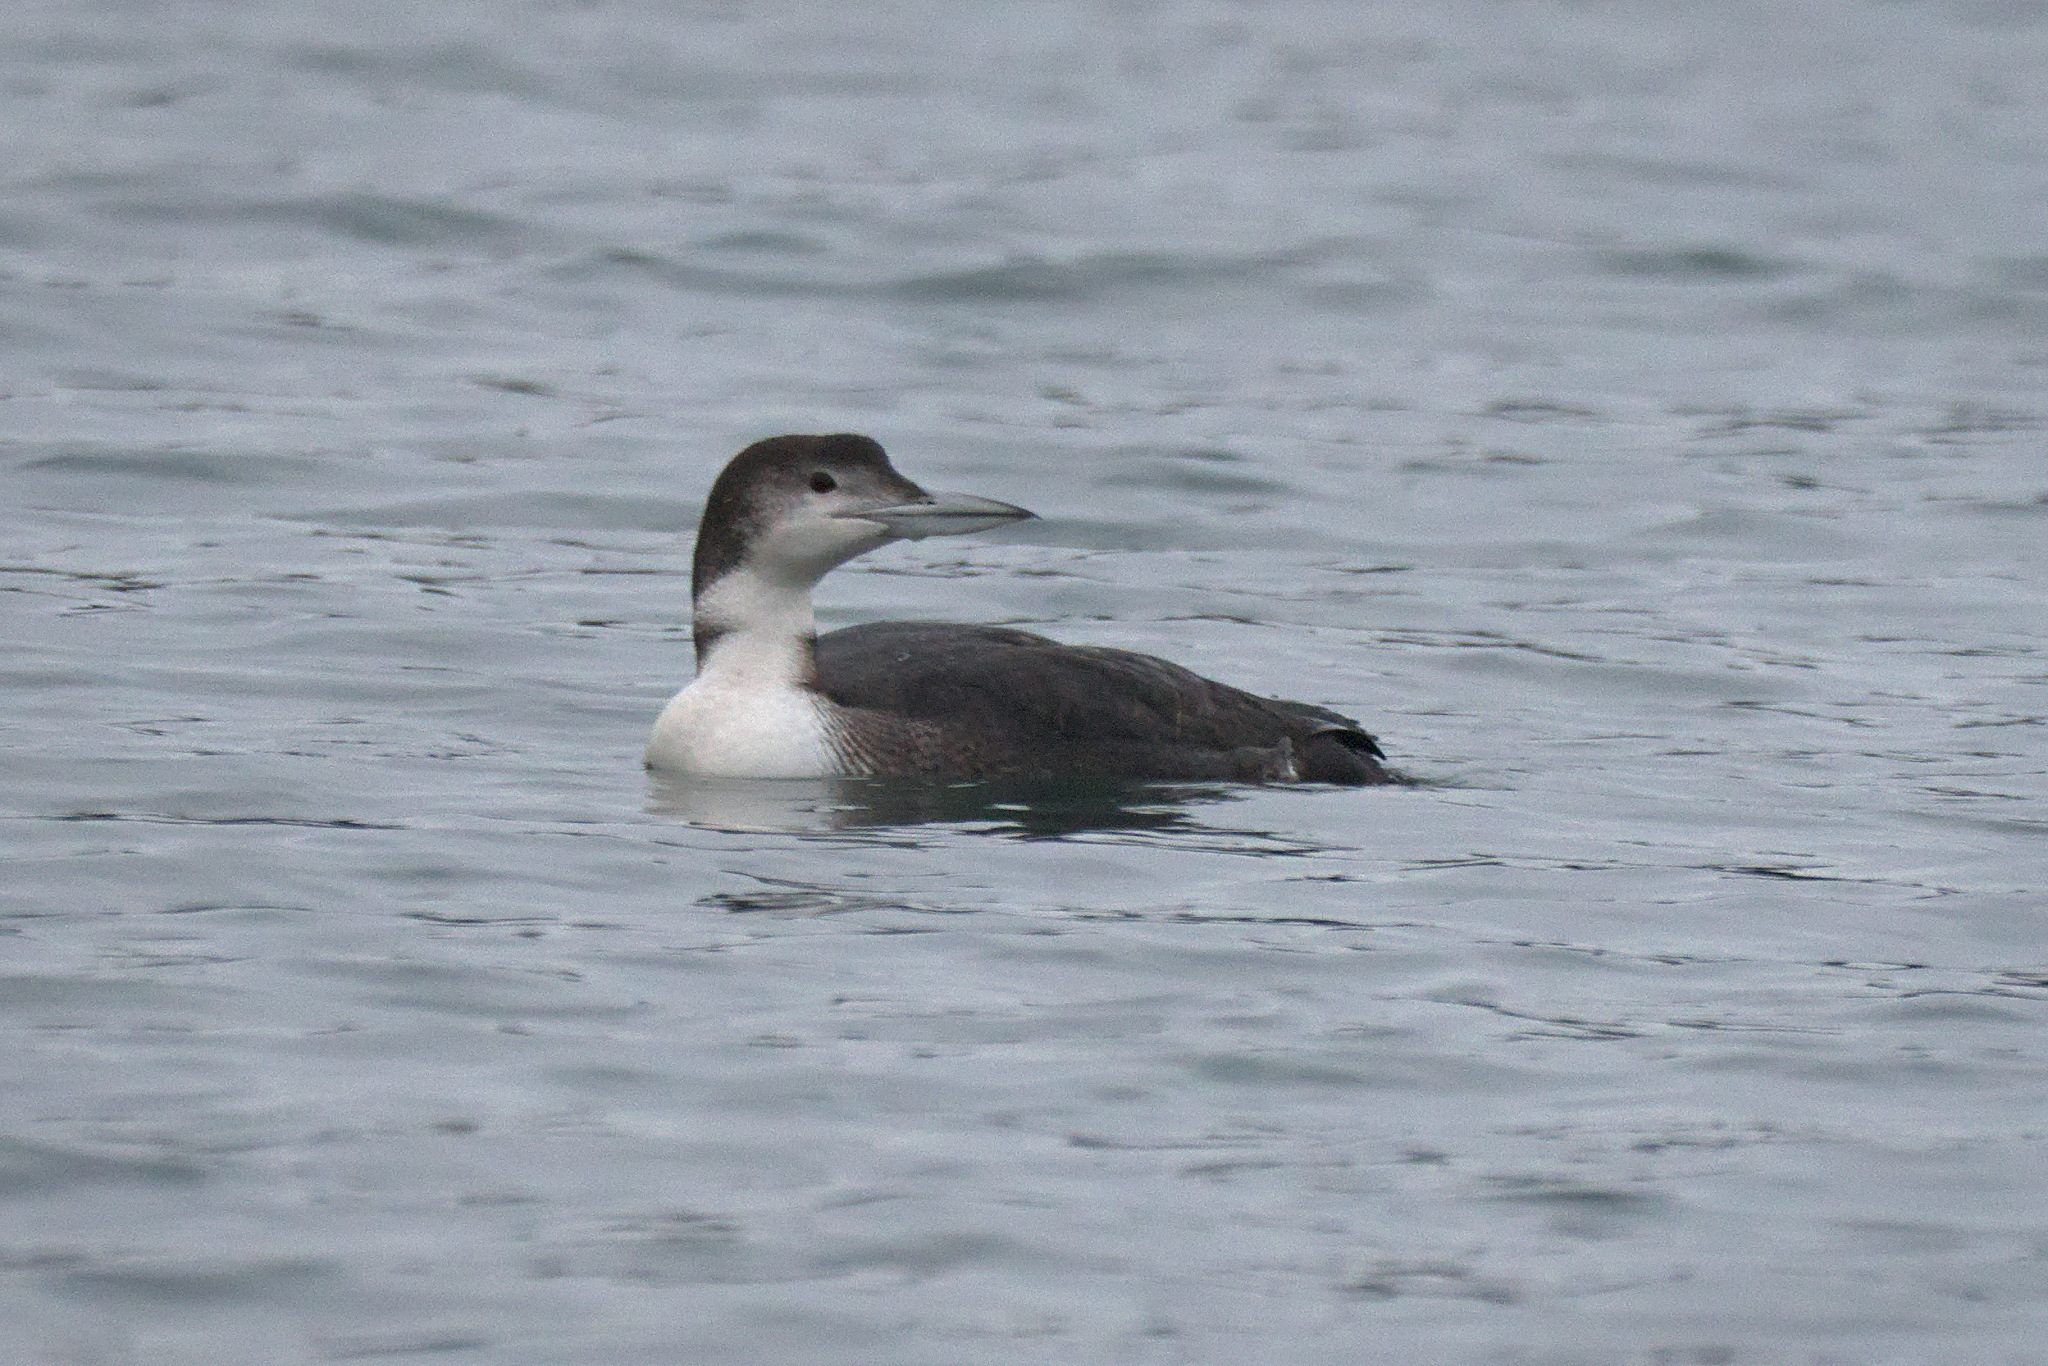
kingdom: Animalia
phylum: Chordata
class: Aves
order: Gaviiformes
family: Gaviidae
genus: Gavia
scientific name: Gavia immer
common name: Common loon
